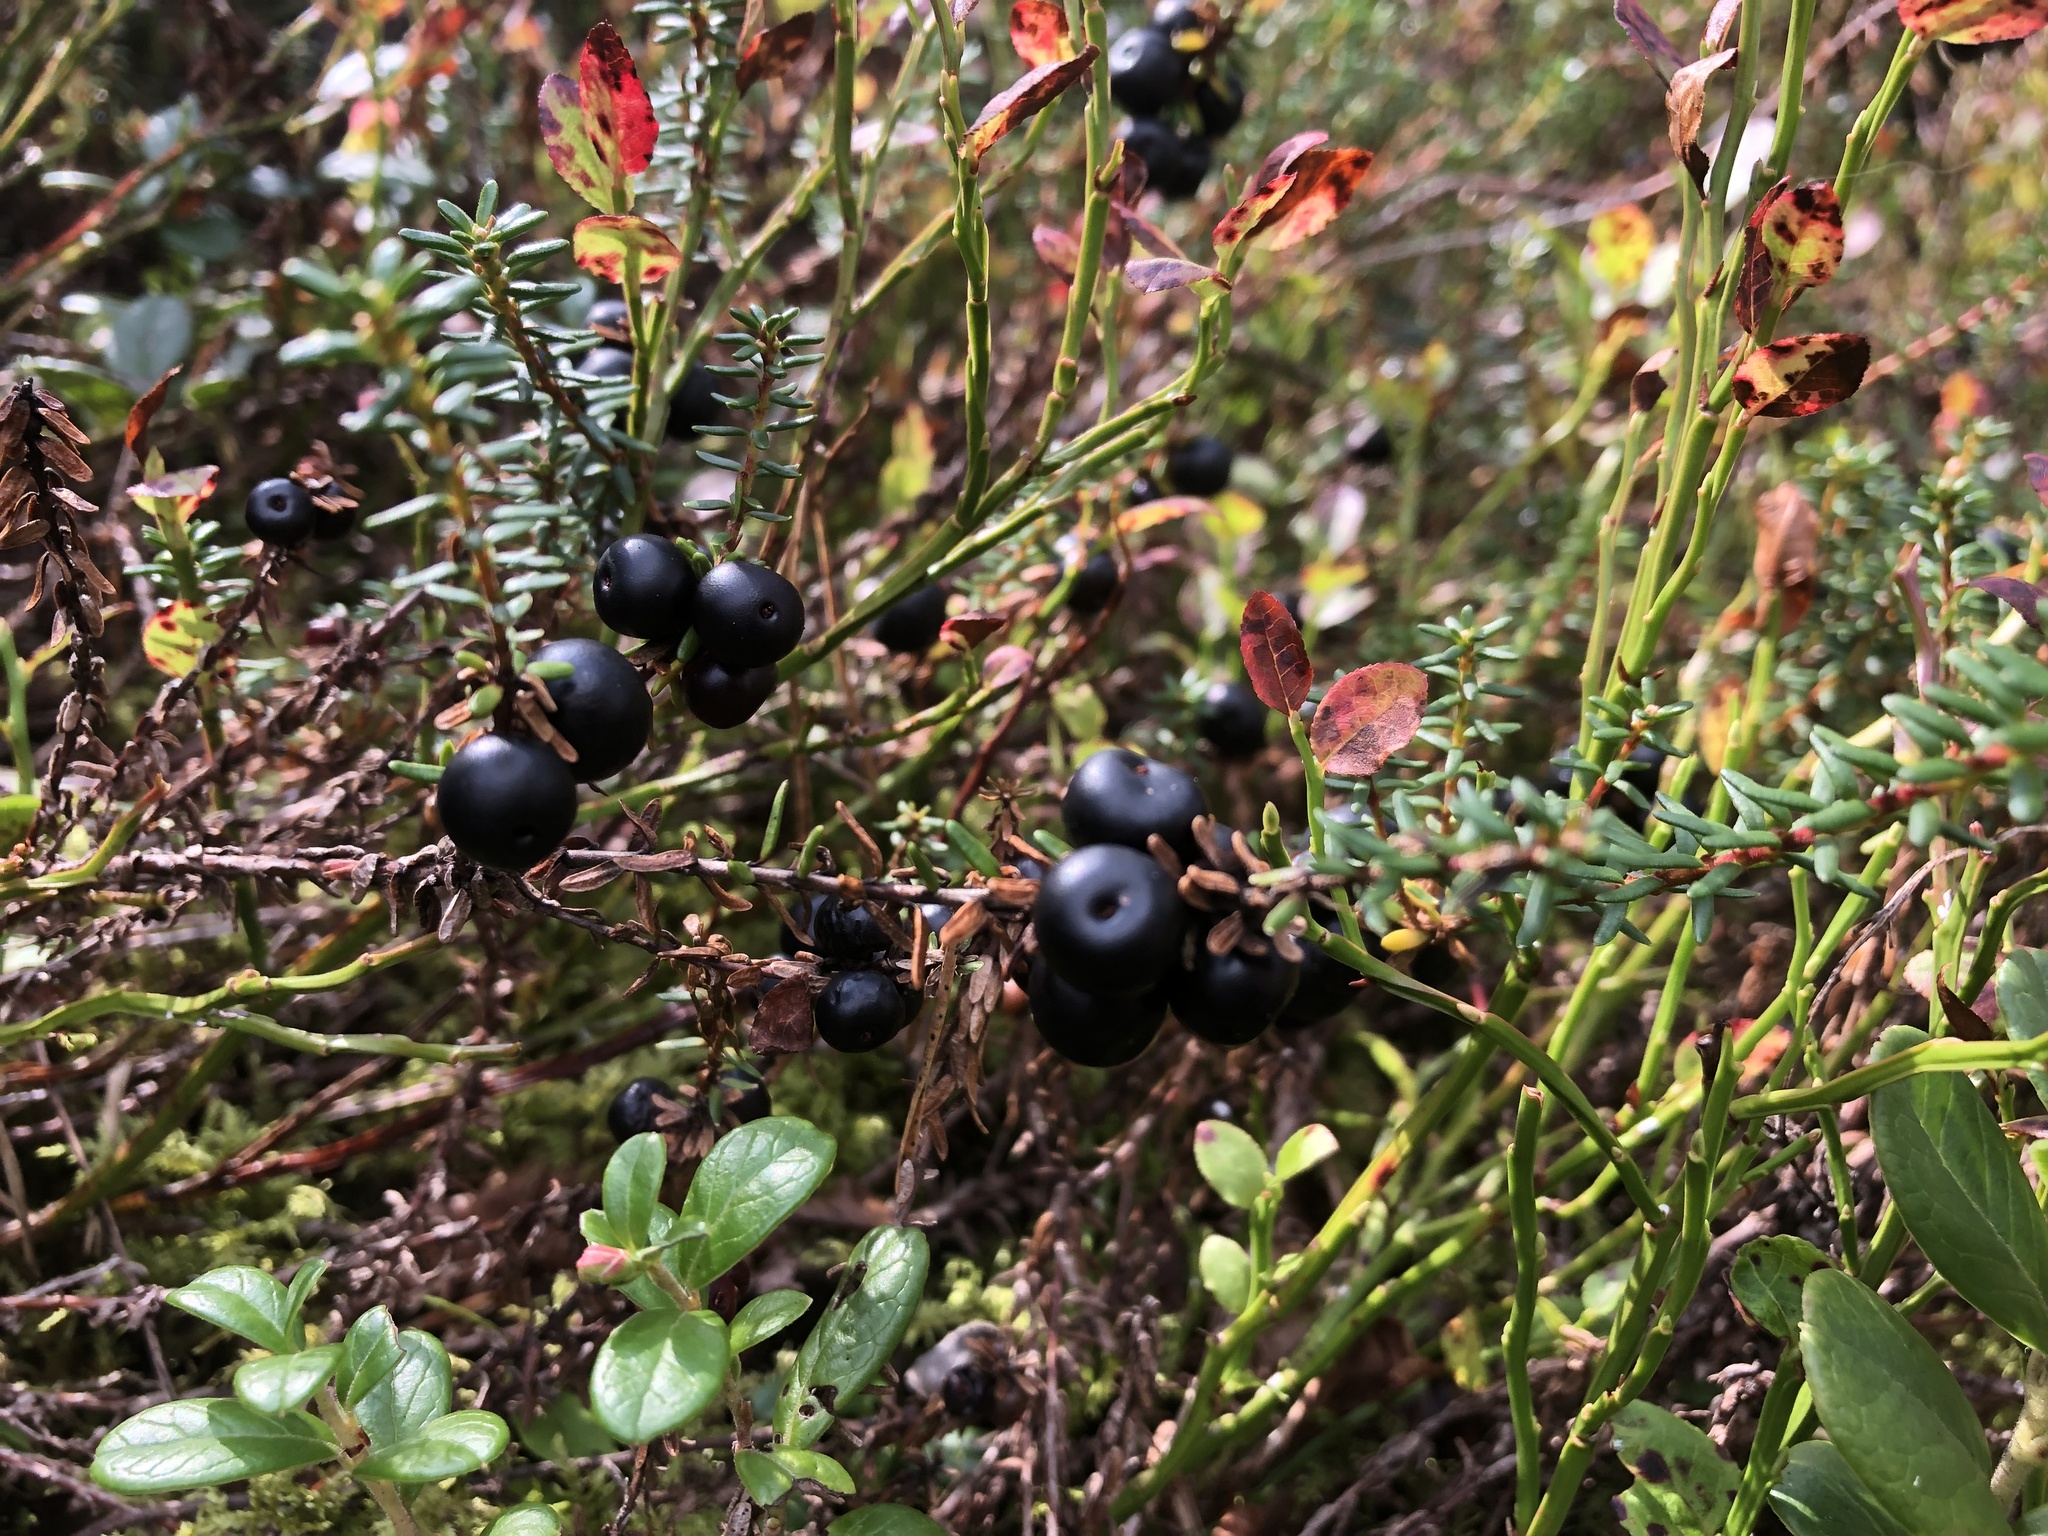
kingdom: Plantae
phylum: Tracheophyta
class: Magnoliopsida
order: Ericales
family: Ericaceae
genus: Empetrum
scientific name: Empetrum nigrum
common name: Black crowberry
